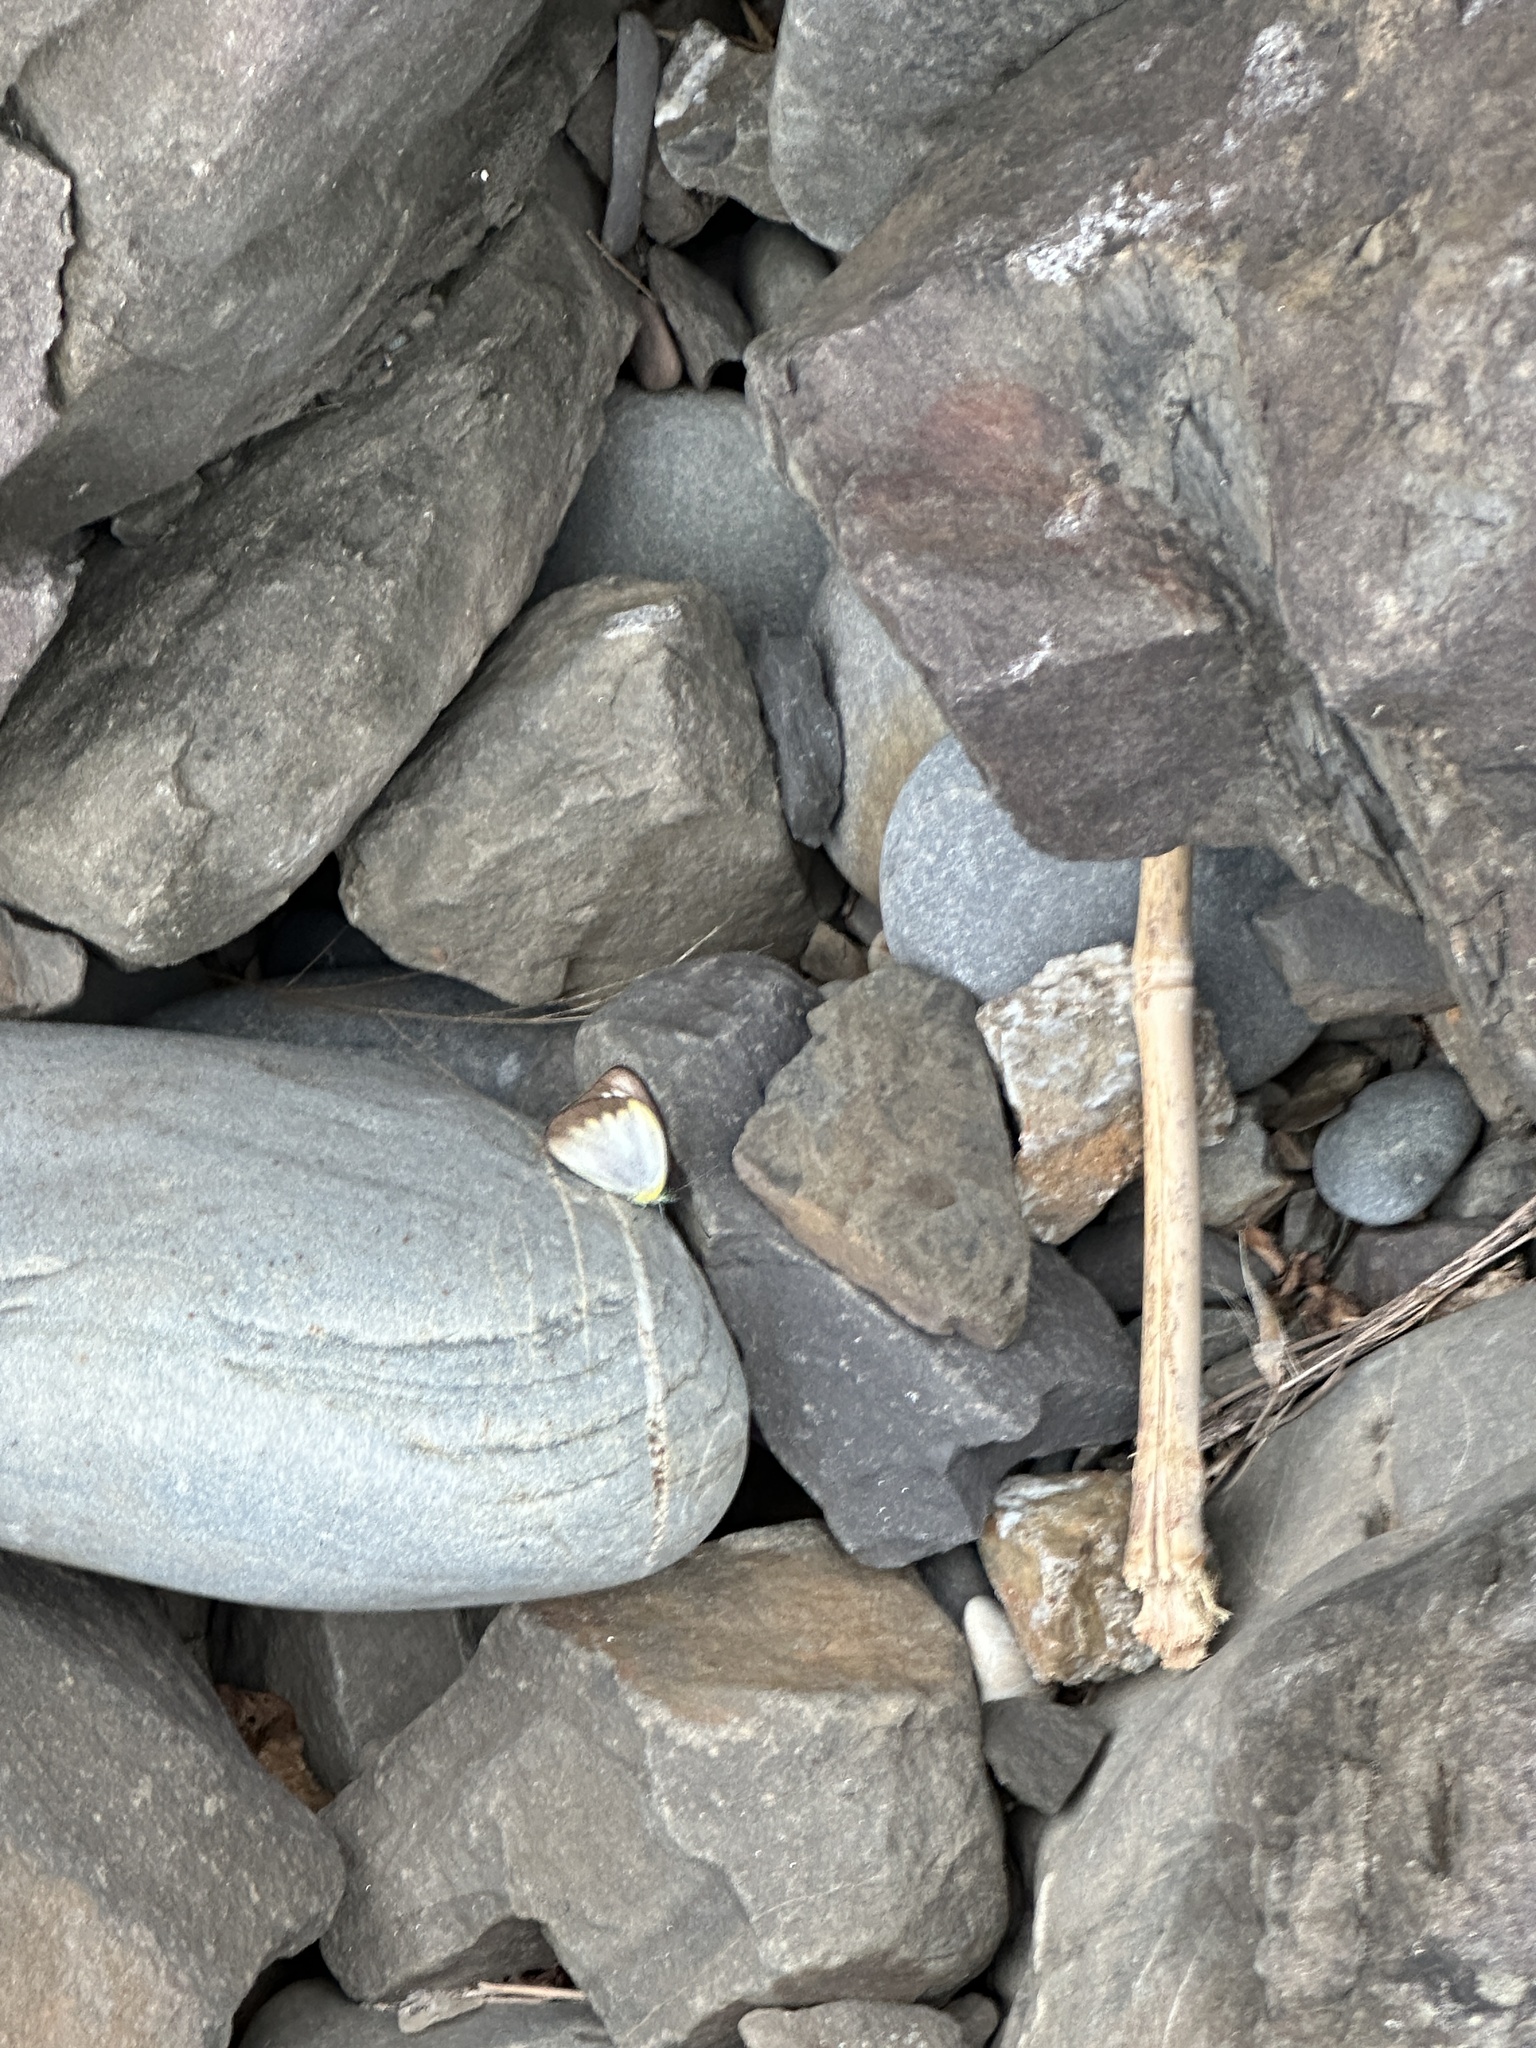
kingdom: Animalia
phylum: Arthropoda
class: Insecta
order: Lepidoptera
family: Pieridae
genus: Appias
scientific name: Appias lyncida
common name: Chocolate albatross
